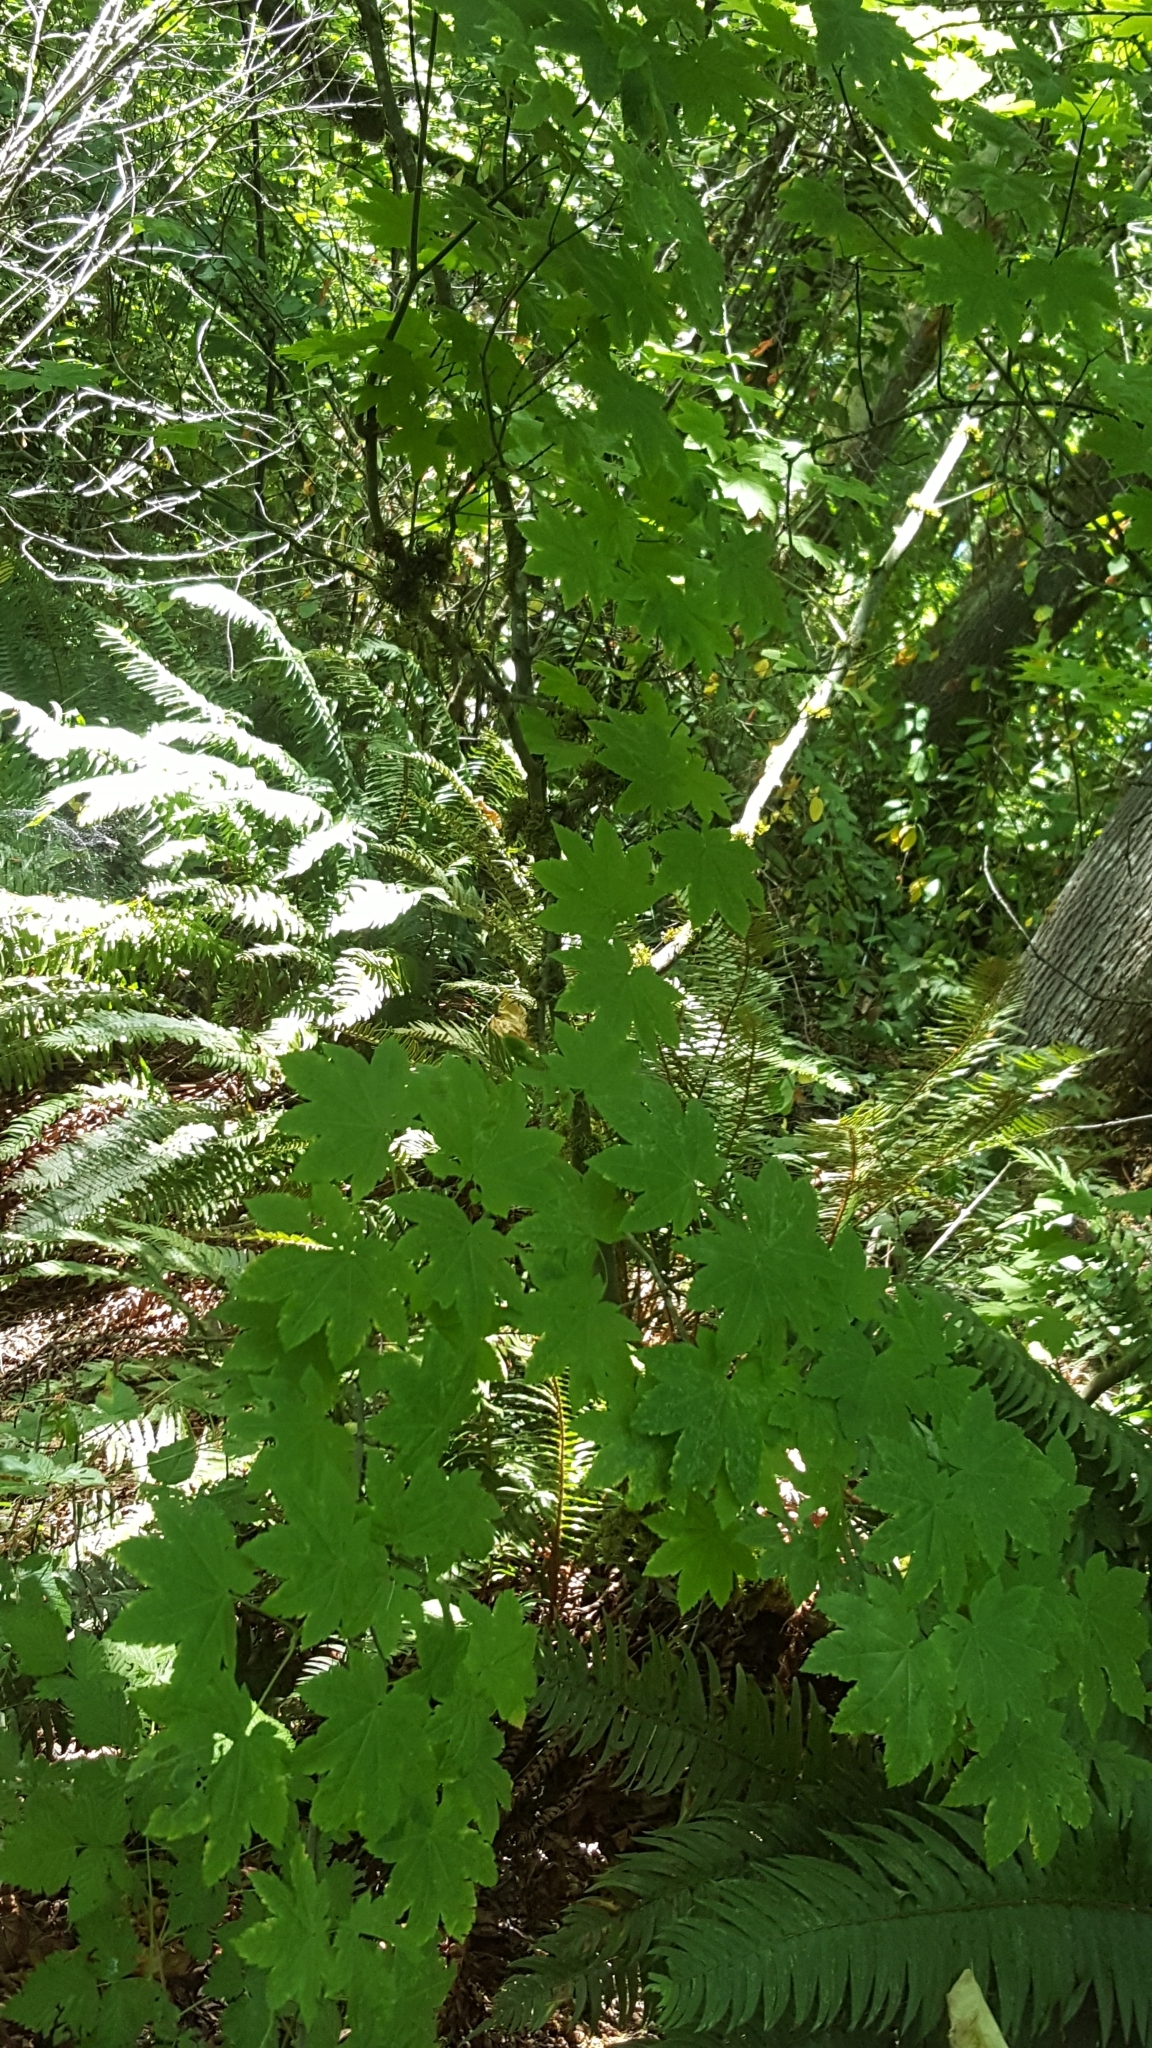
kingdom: Plantae
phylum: Tracheophyta
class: Magnoliopsida
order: Sapindales
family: Sapindaceae
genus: Acer
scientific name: Acer circinatum
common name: Vine maple
